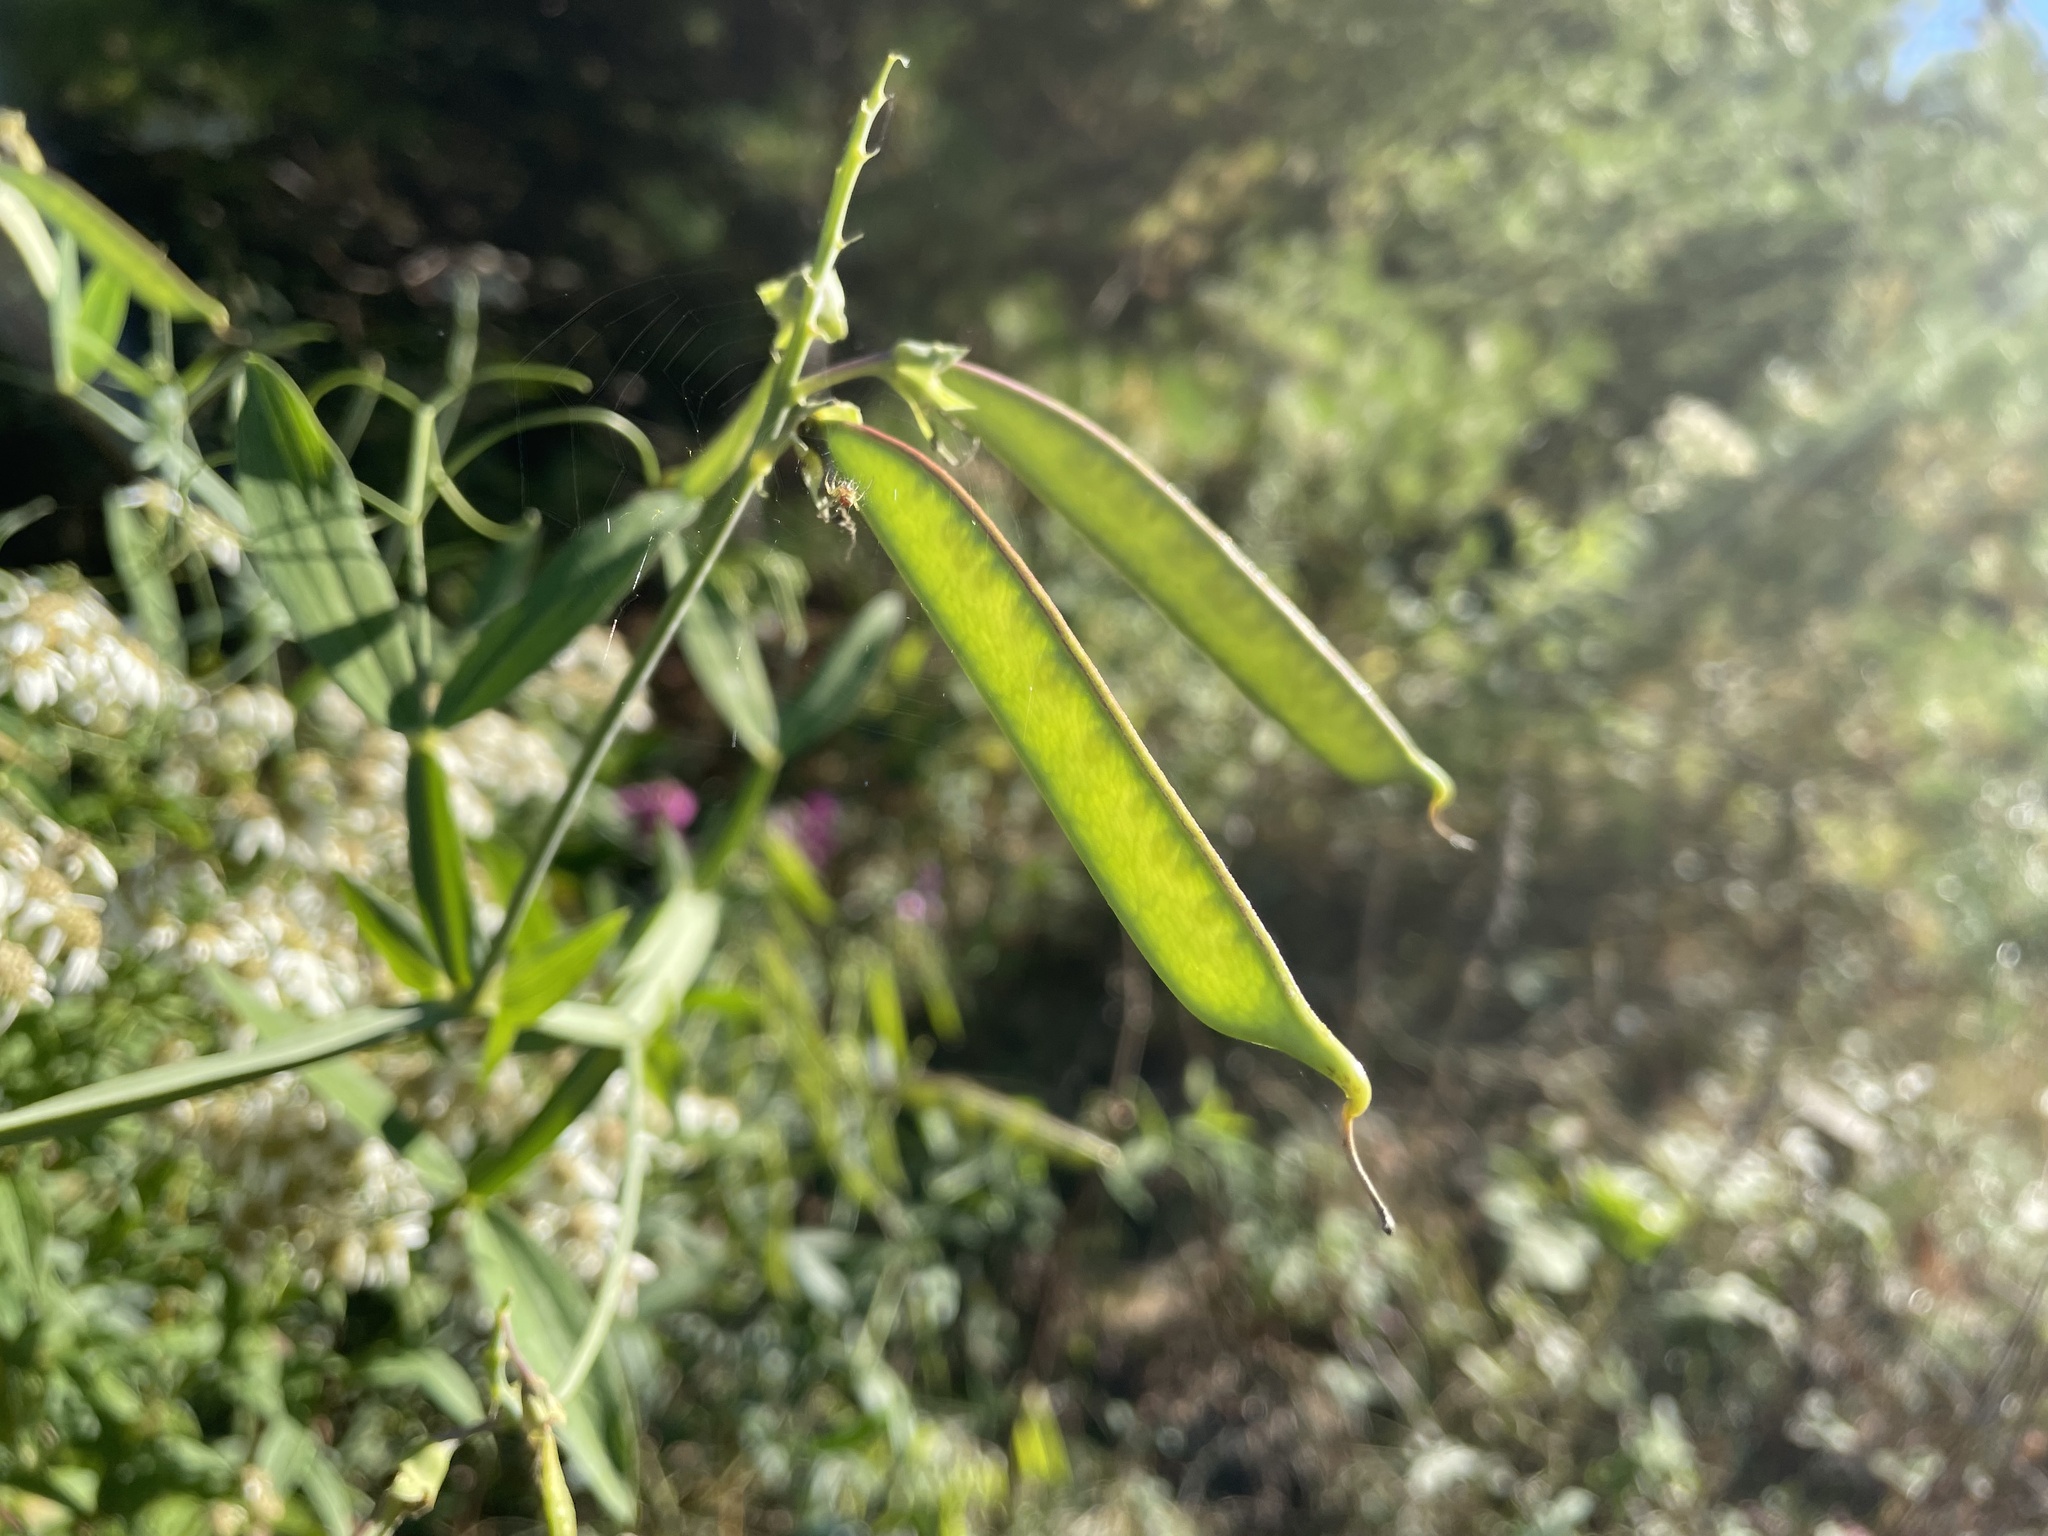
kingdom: Plantae
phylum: Tracheophyta
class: Magnoliopsida
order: Fabales
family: Fabaceae
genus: Lathyrus
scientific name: Lathyrus latifolius
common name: Perennial pea
